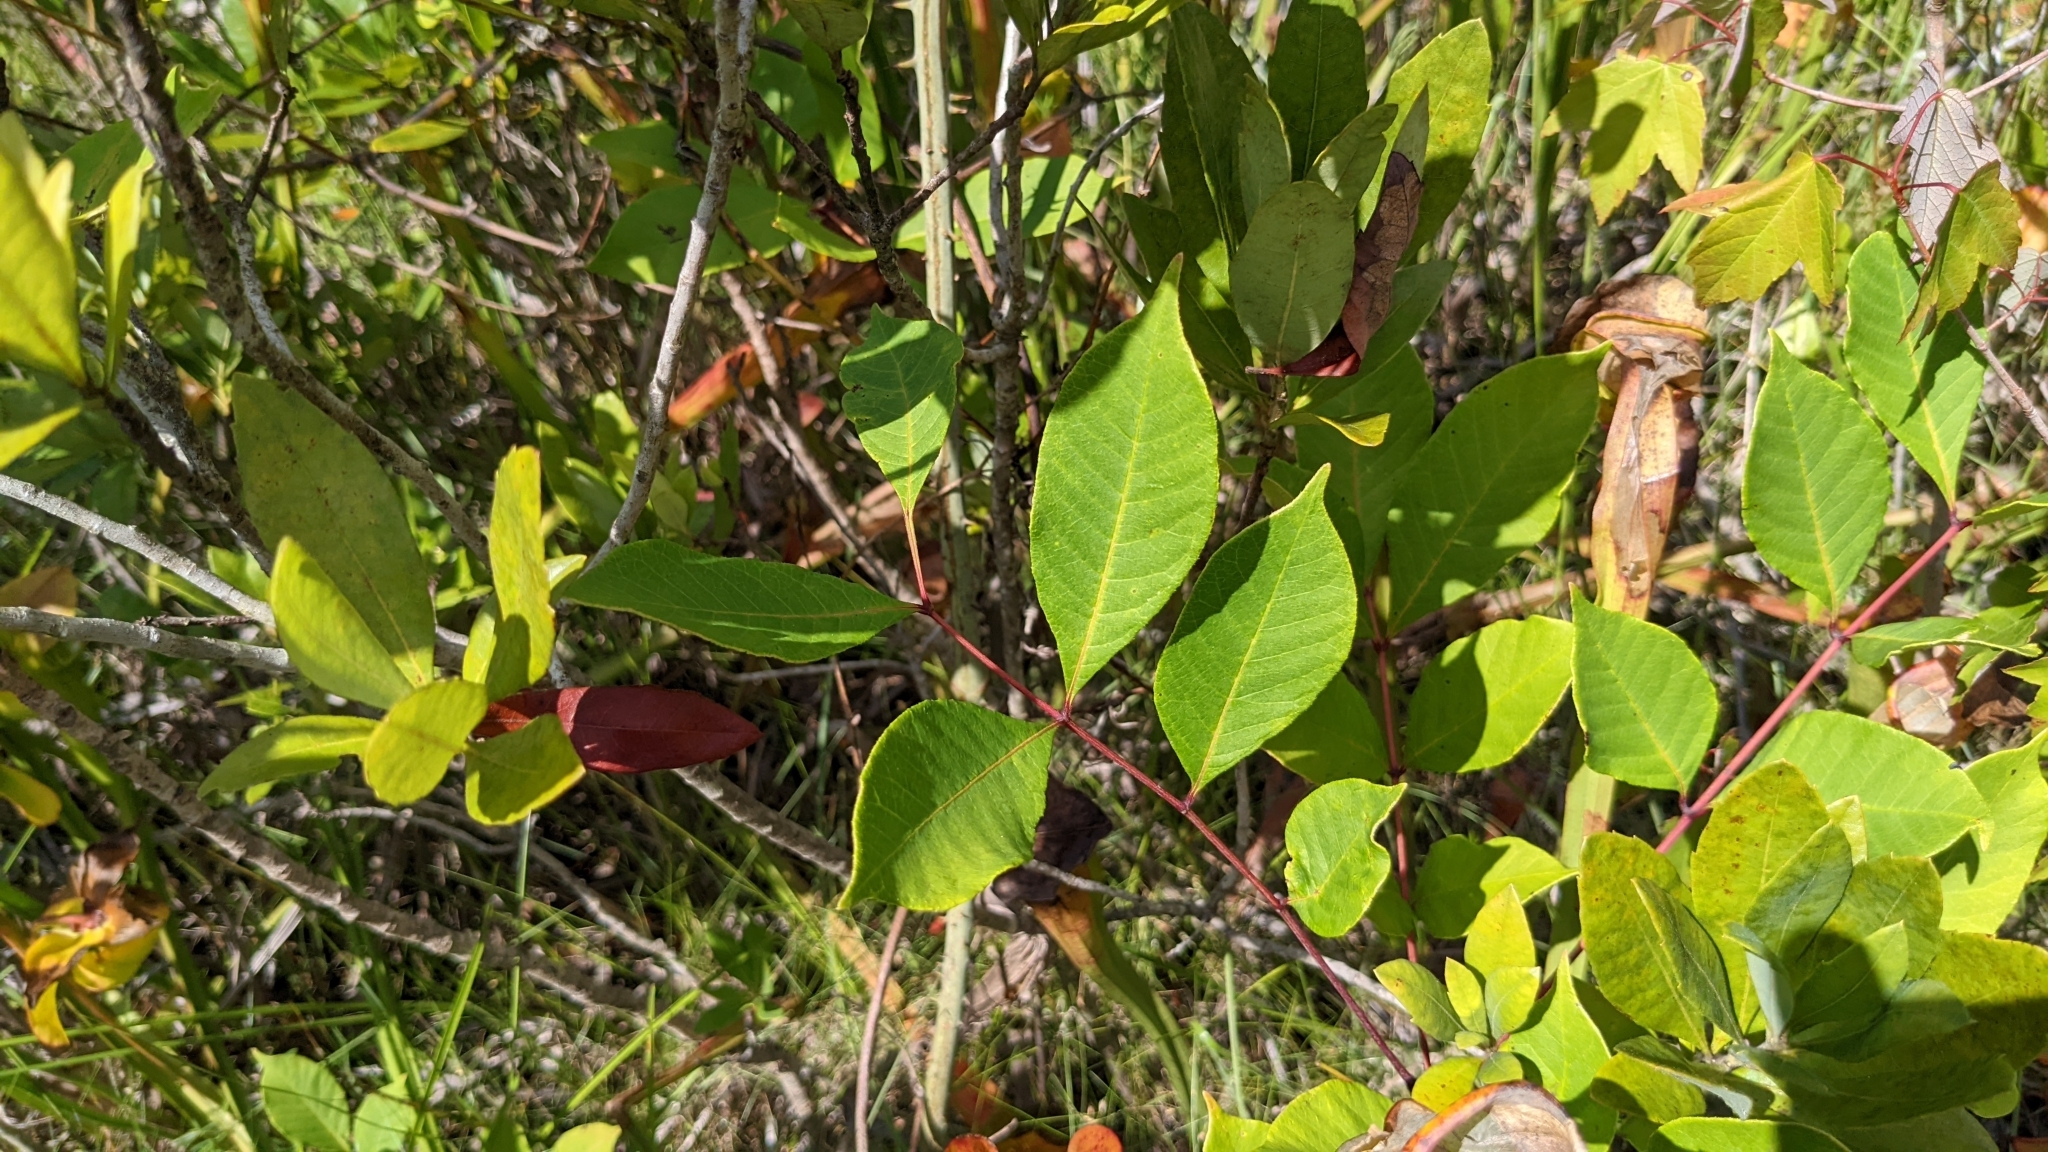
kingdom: Plantae
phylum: Tracheophyta
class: Magnoliopsida
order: Sapindales
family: Anacardiaceae
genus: Toxicodendron
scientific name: Toxicodendron vernix
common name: Poison sumac
